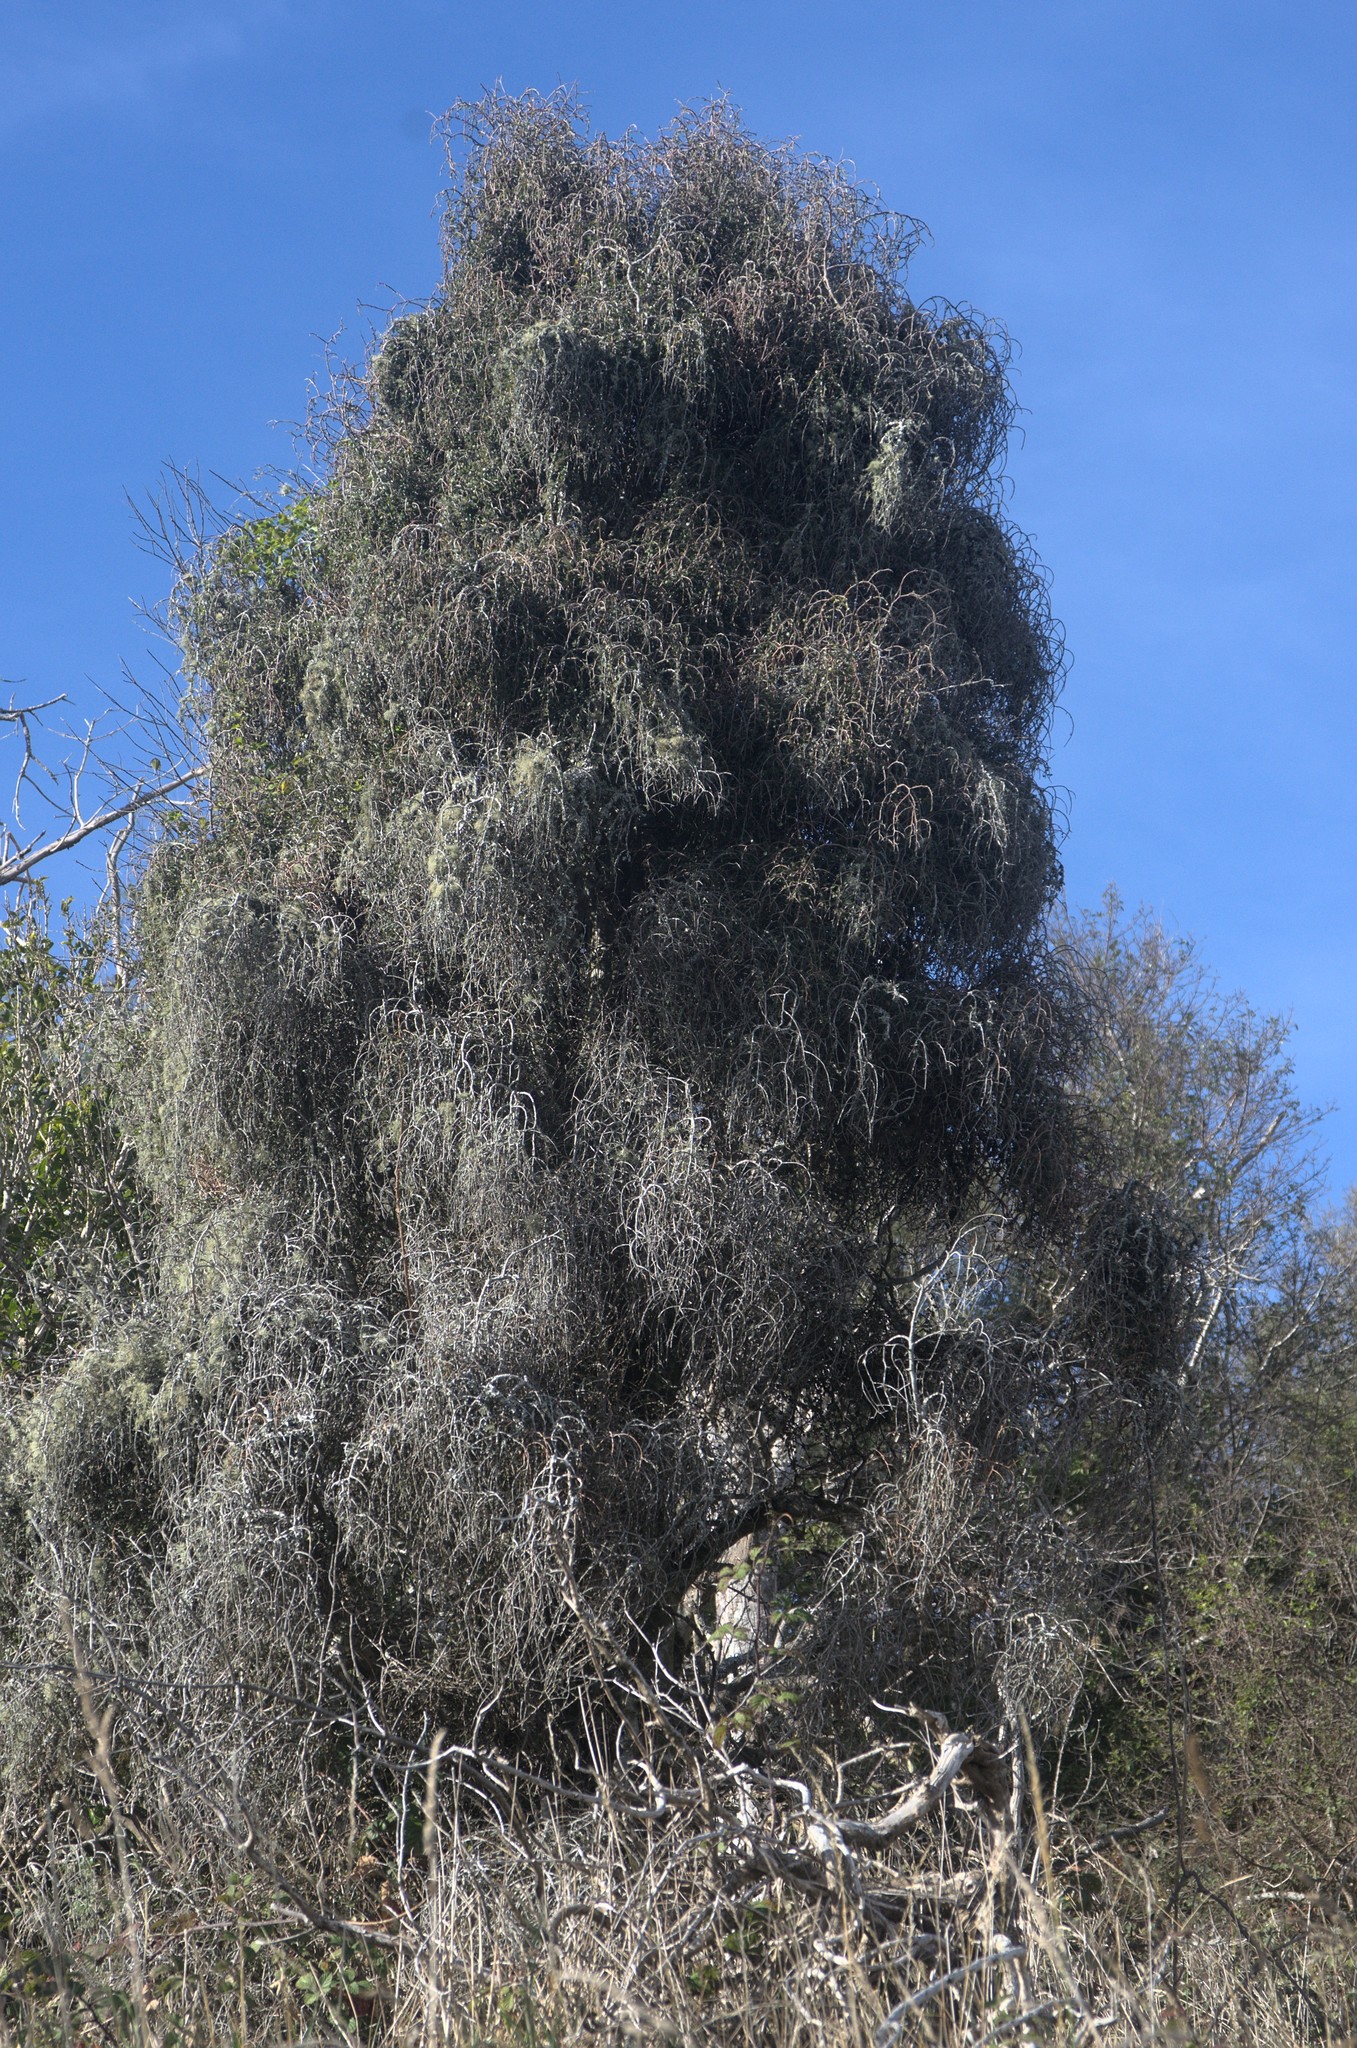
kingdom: Plantae
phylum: Tracheophyta
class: Magnoliopsida
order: Ericales
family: Primulaceae
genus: Myrsine
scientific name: Myrsine divaricata
